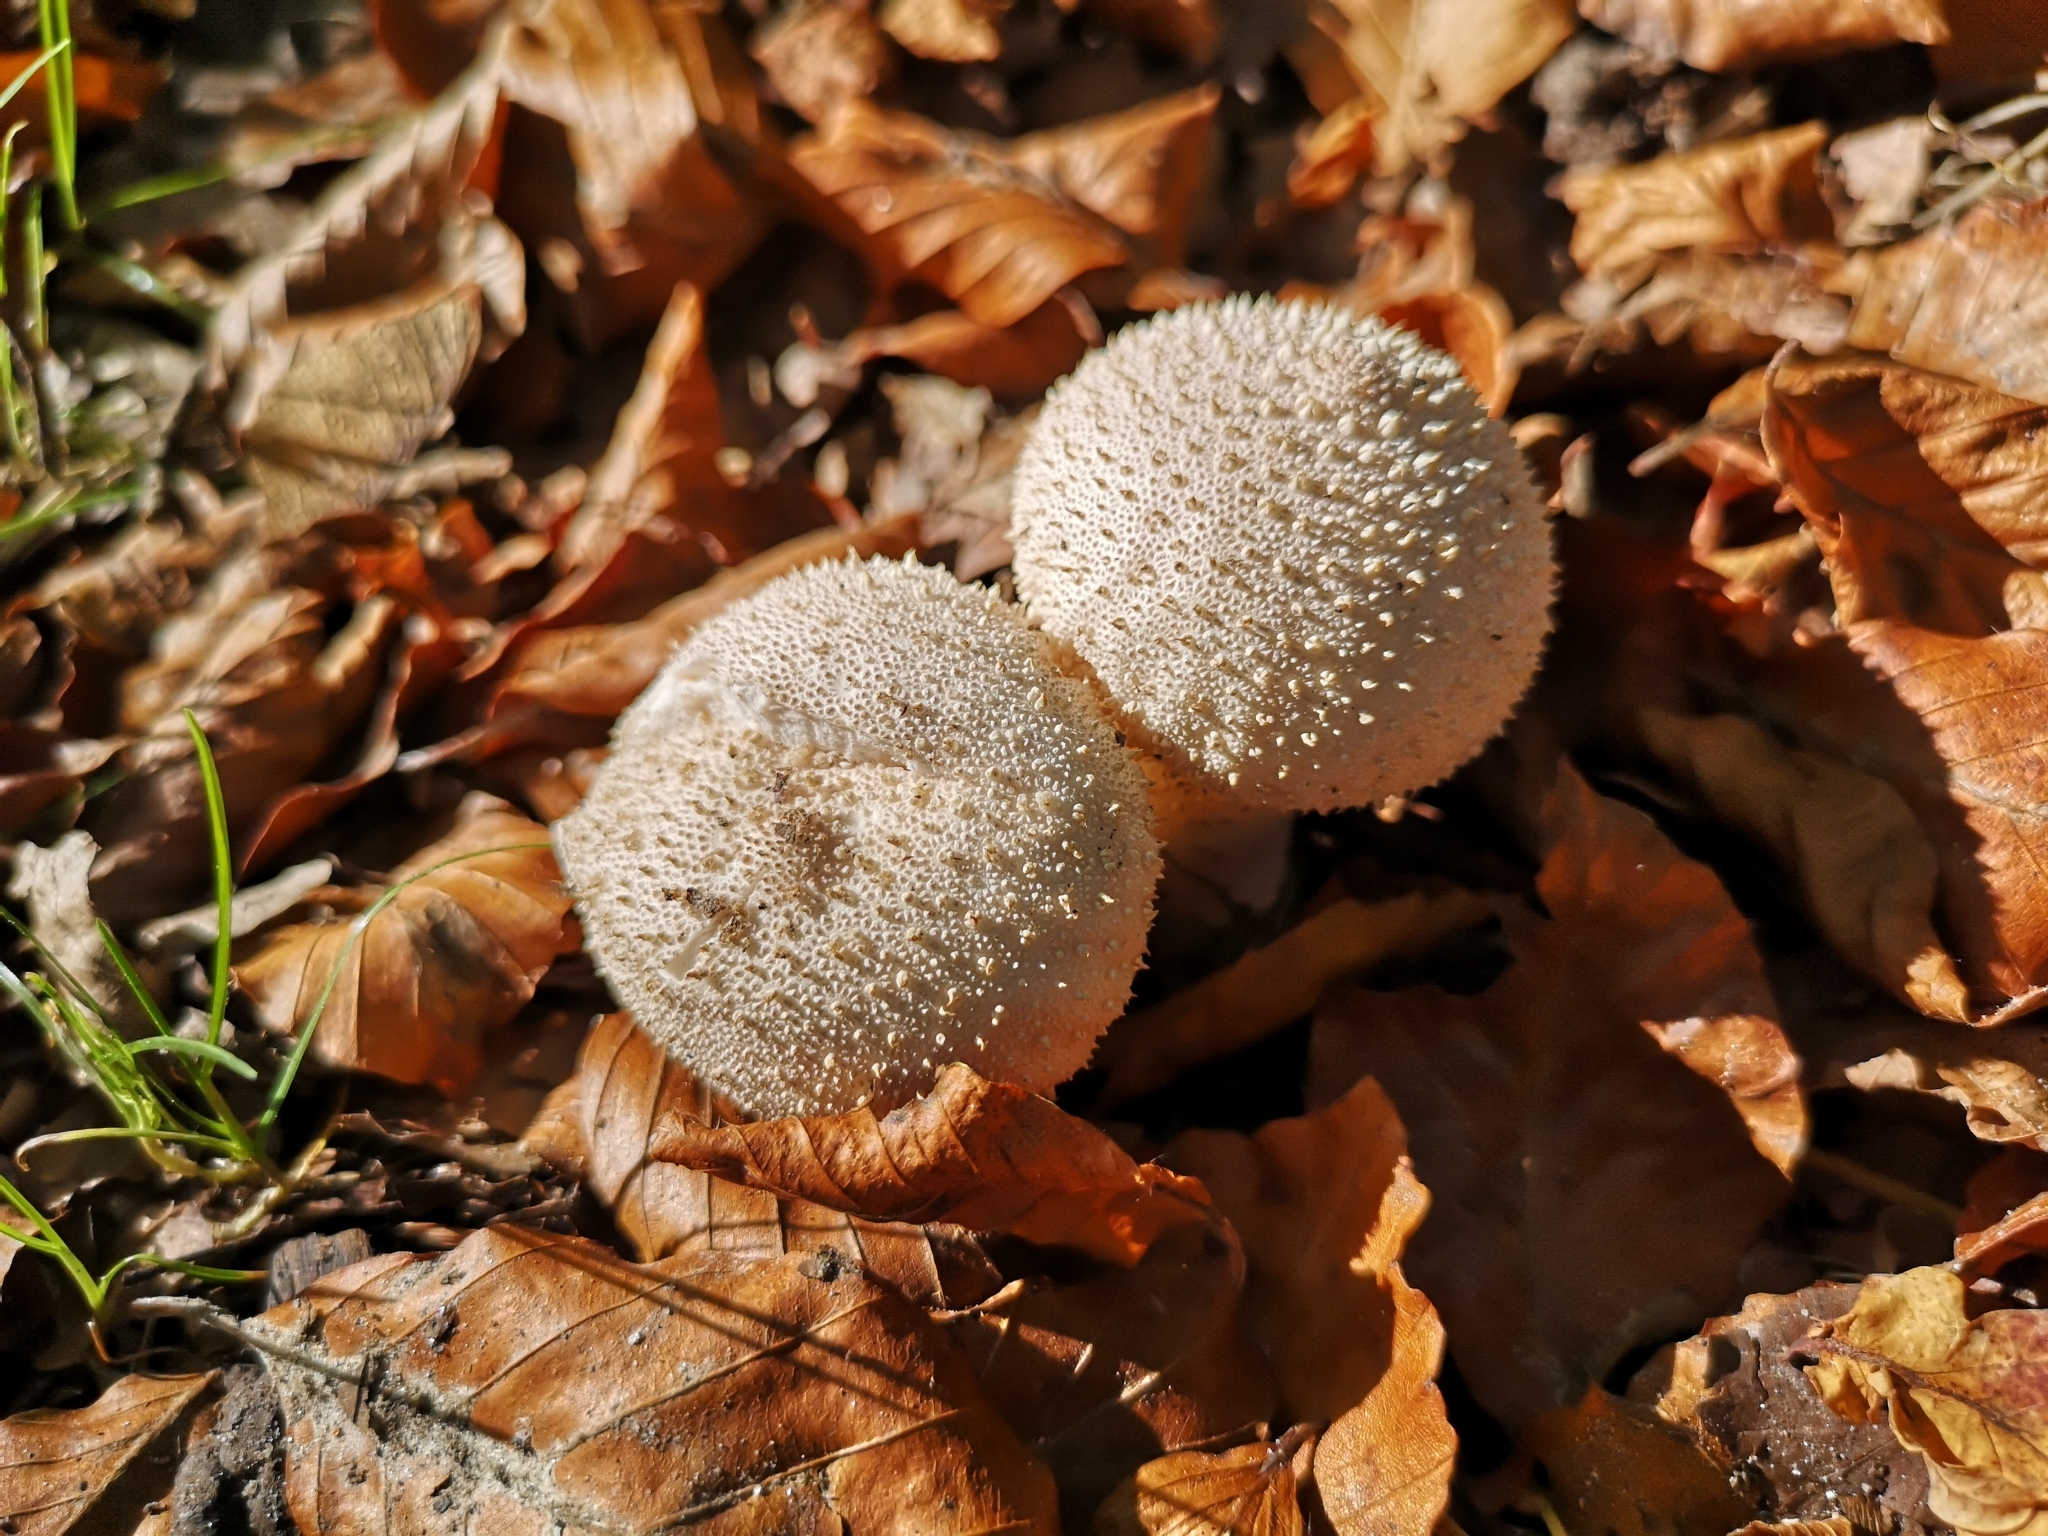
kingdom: Fungi
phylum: Basidiomycota
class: Agaricomycetes
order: Agaricales
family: Lycoperdaceae
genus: Lycoperdon
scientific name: Lycoperdon perlatum
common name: Common puffball
